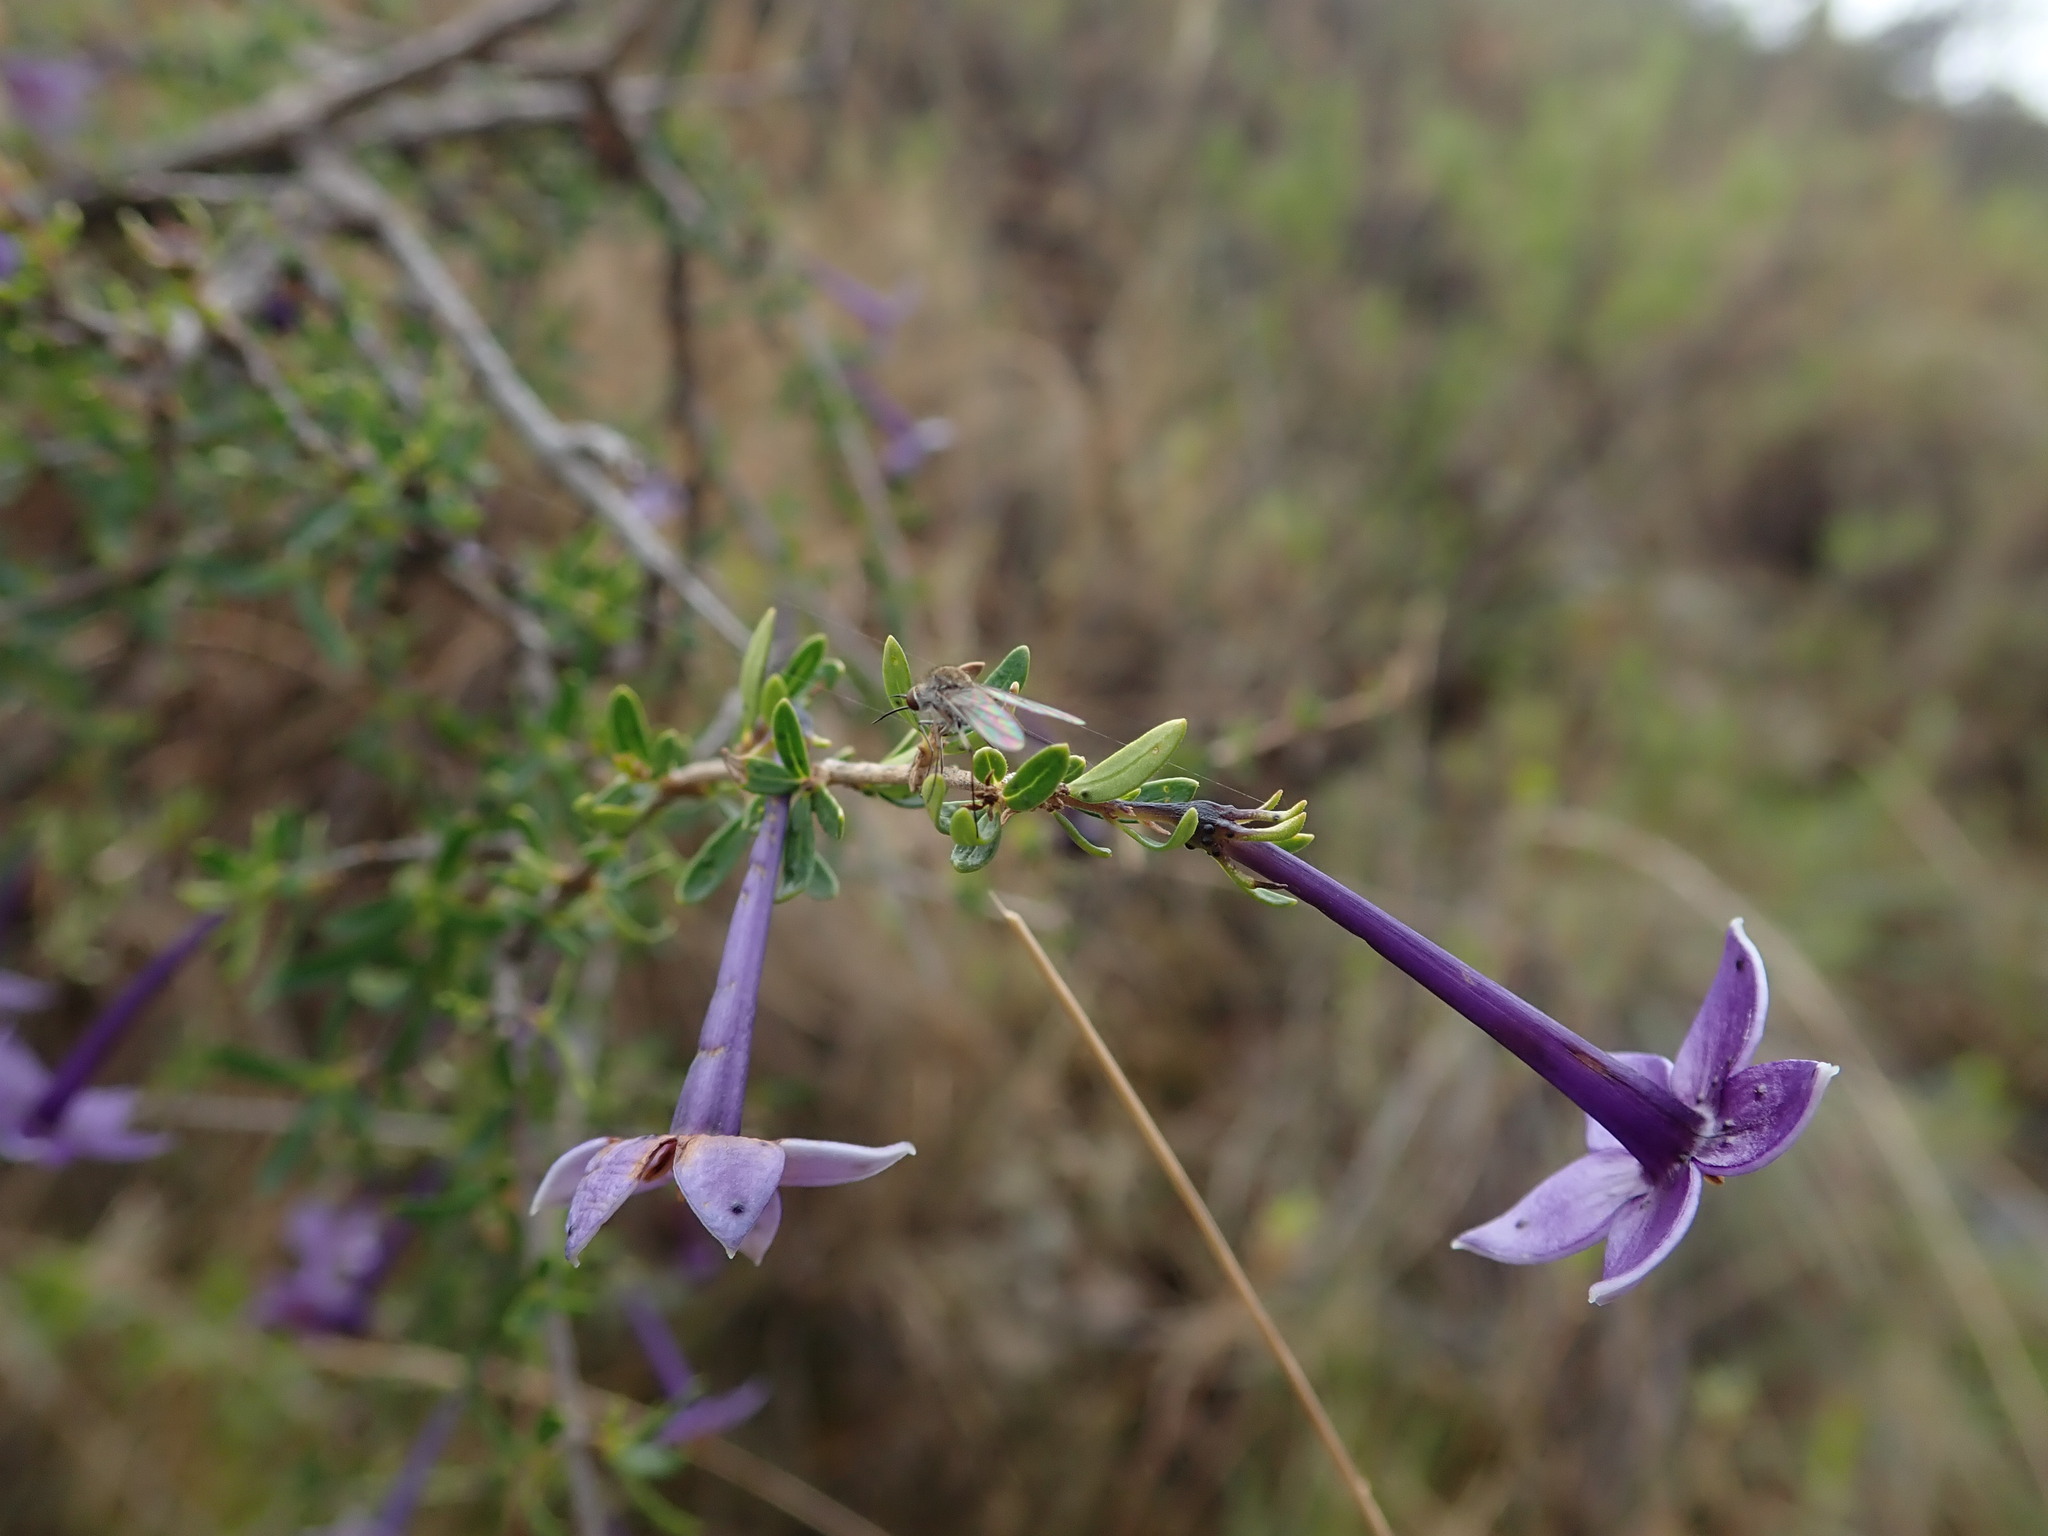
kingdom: Plantae
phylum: Tracheophyta
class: Magnoliopsida
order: Gentianales
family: Rubiaceae
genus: Heterophyllaea
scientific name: Heterophyllaea lycioides
